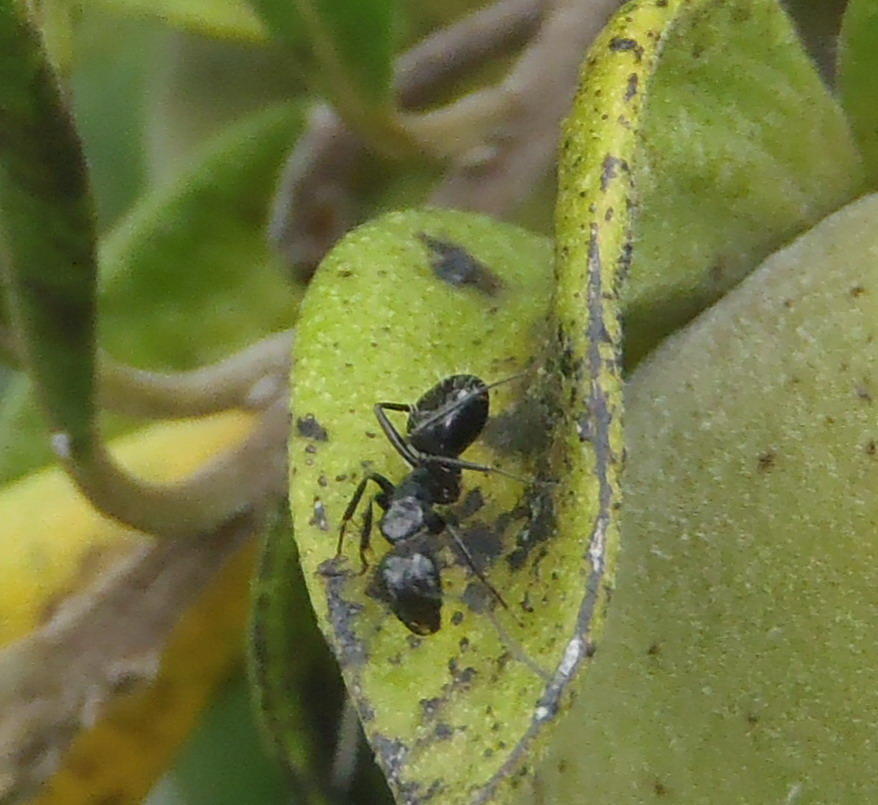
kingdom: Animalia
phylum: Arthropoda
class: Insecta
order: Hymenoptera
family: Formicidae
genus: Camponotus
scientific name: Camponotus niveosetosus
